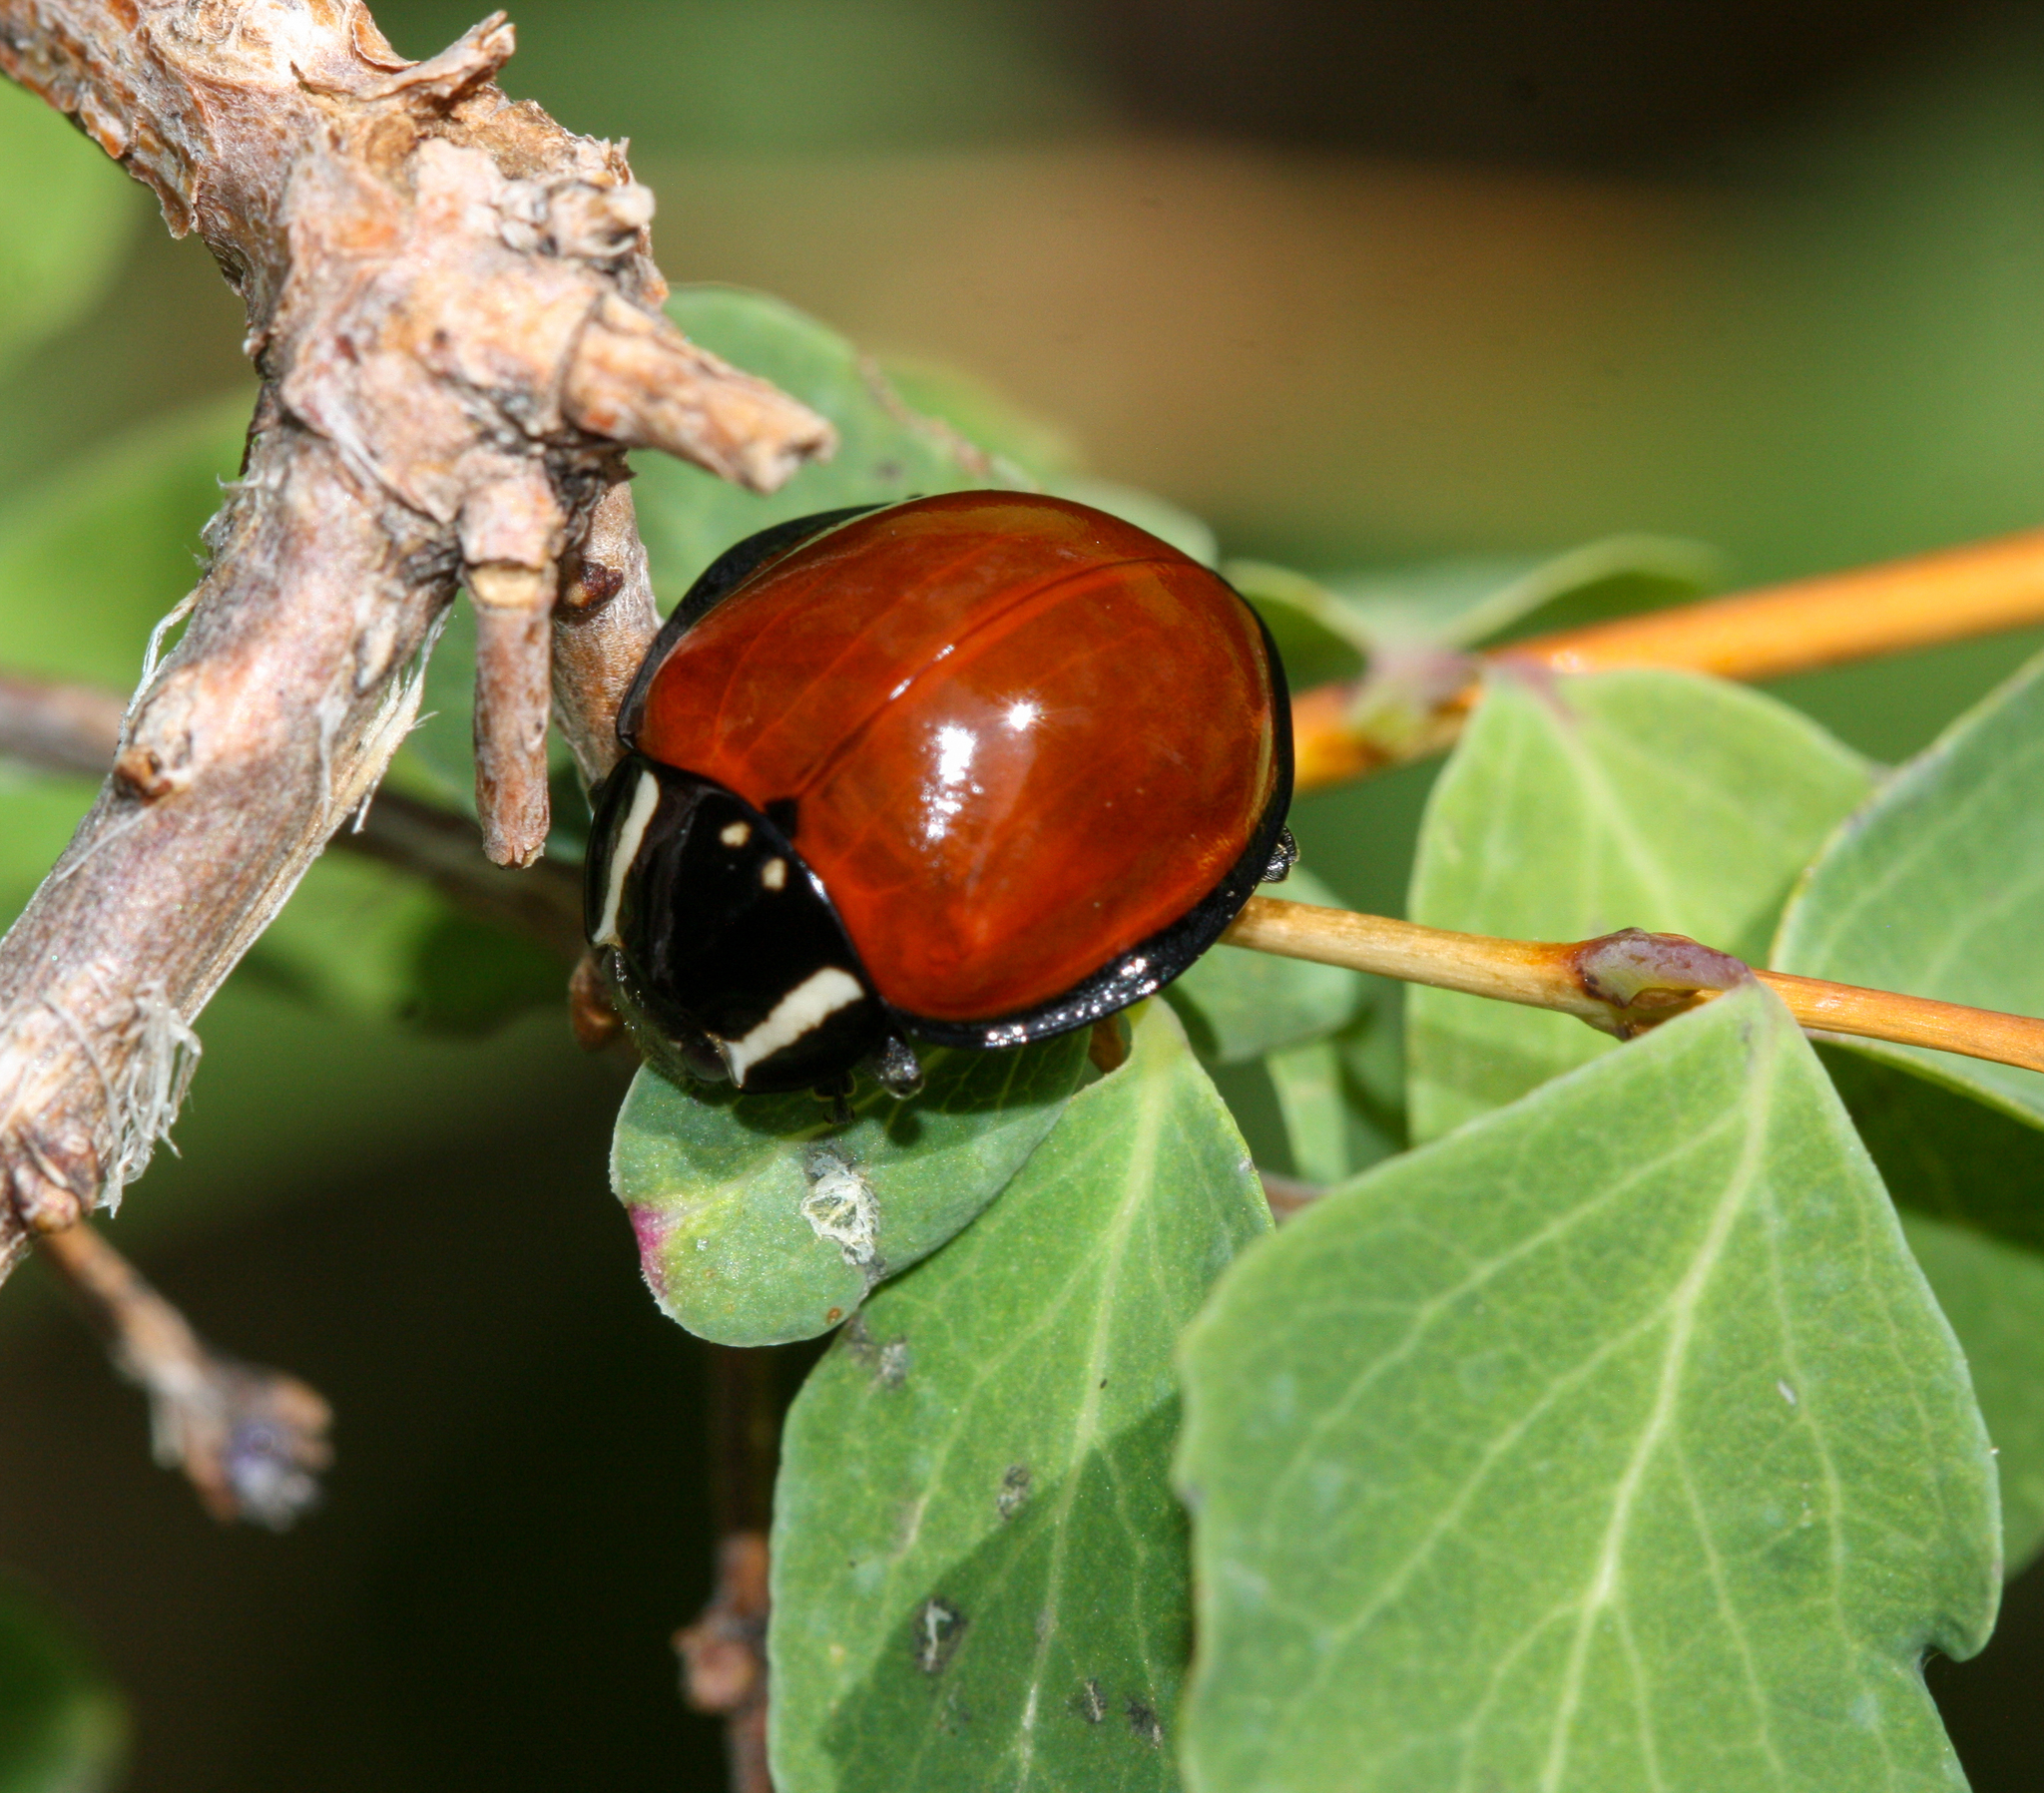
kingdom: Animalia
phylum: Arthropoda
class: Insecta
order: Coleoptera
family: Coccinellidae
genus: Anatis
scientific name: Anatis lecontei
